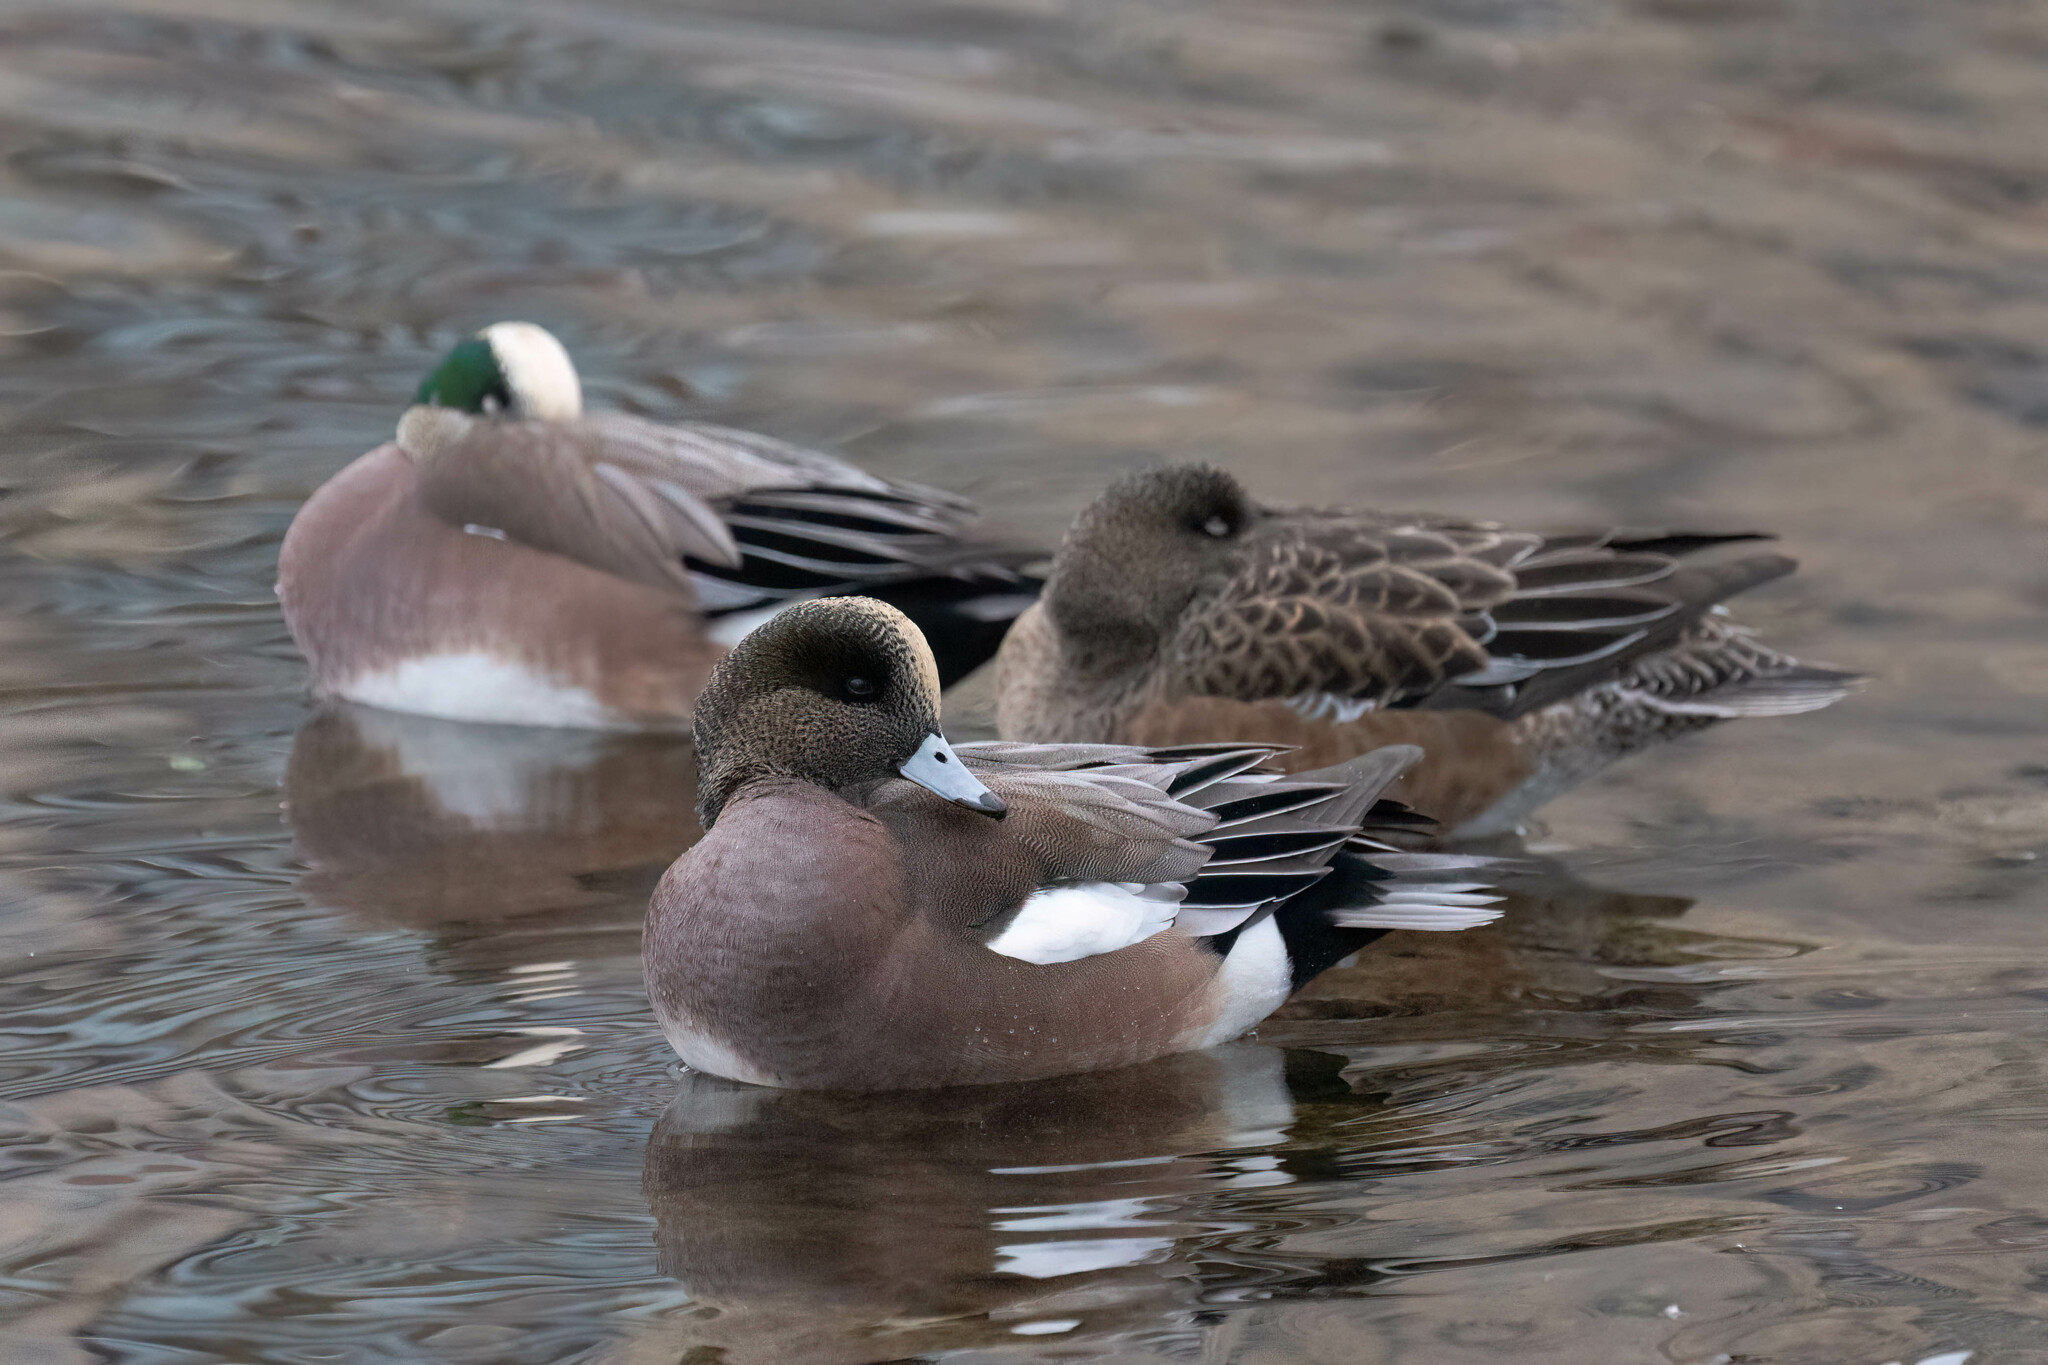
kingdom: Animalia
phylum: Chordata
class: Aves
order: Anseriformes
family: Anatidae
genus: Mareca
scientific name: Mareca americana
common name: American wigeon
